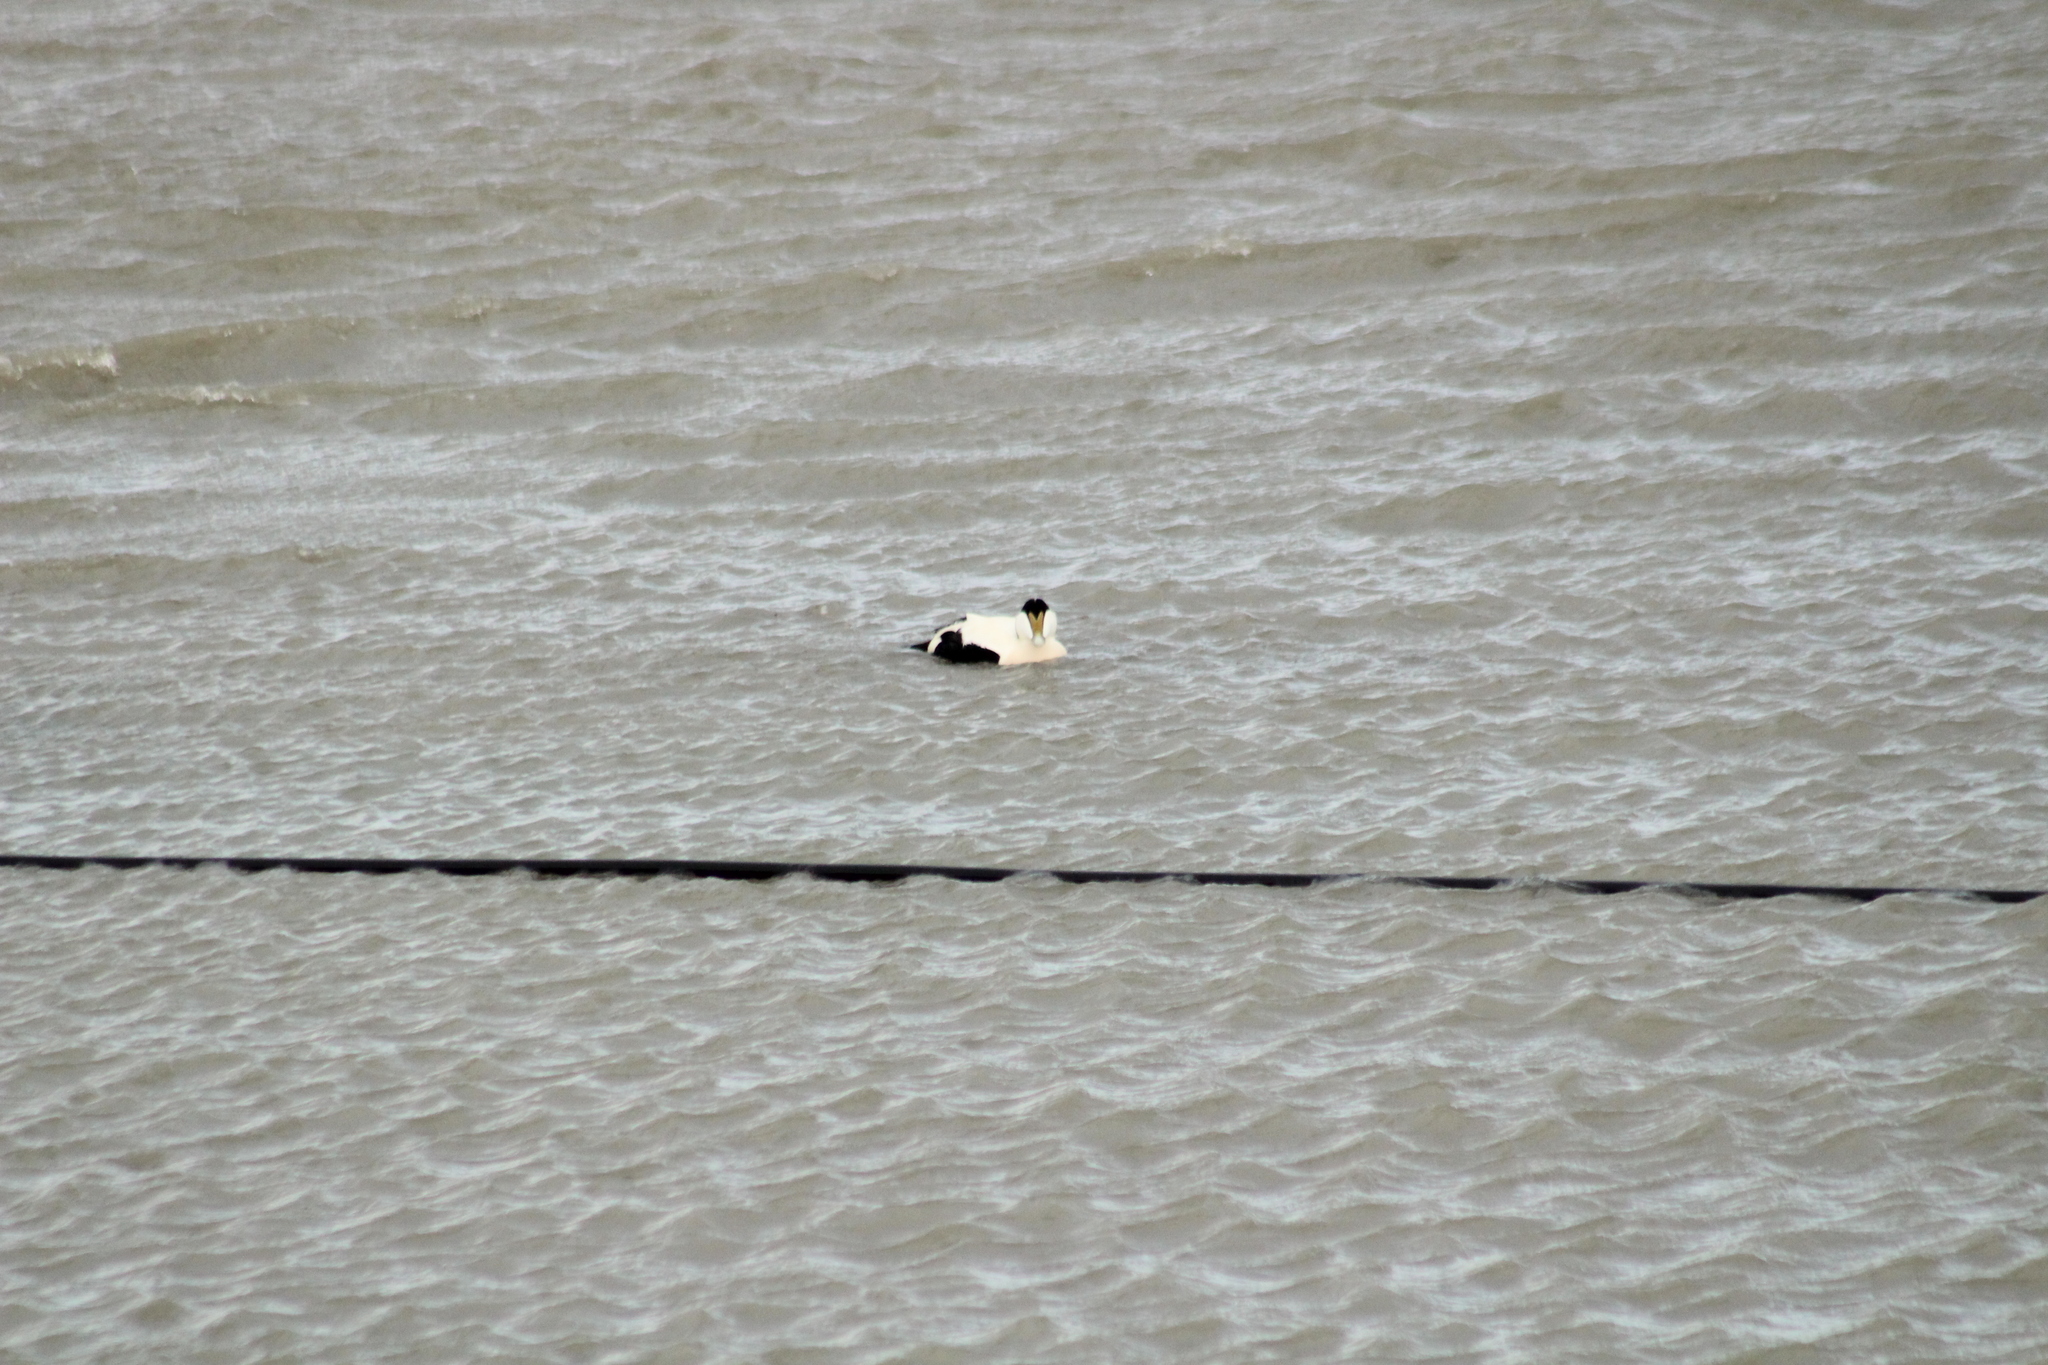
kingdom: Animalia
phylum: Chordata
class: Aves
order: Anseriformes
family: Anatidae
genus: Somateria
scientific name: Somateria mollissima
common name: Common eider
